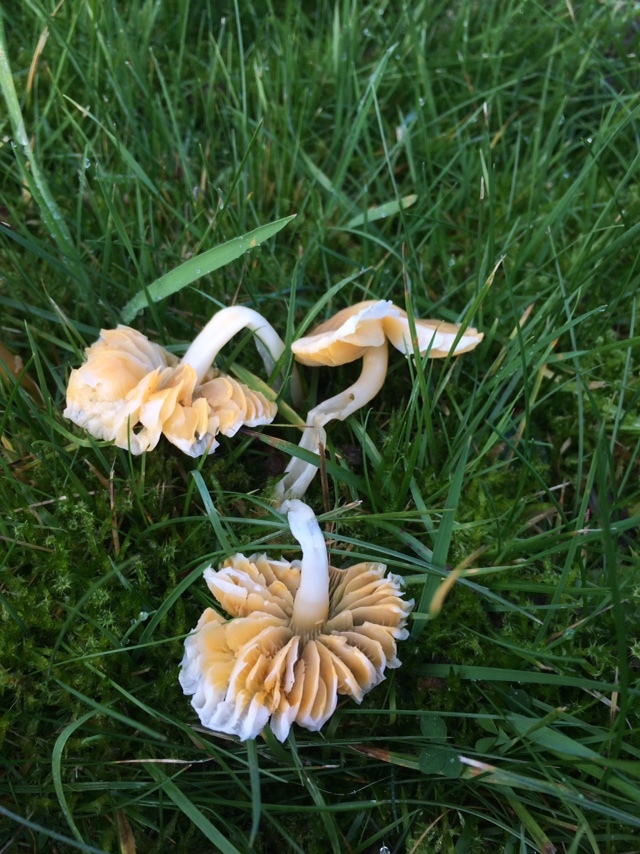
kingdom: Fungi
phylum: Basidiomycota
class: Agaricomycetes
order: Agaricales
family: Hygrophoraceae
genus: Gliophorus
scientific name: Gliophorus psittacinus
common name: Parrot wax-cap
